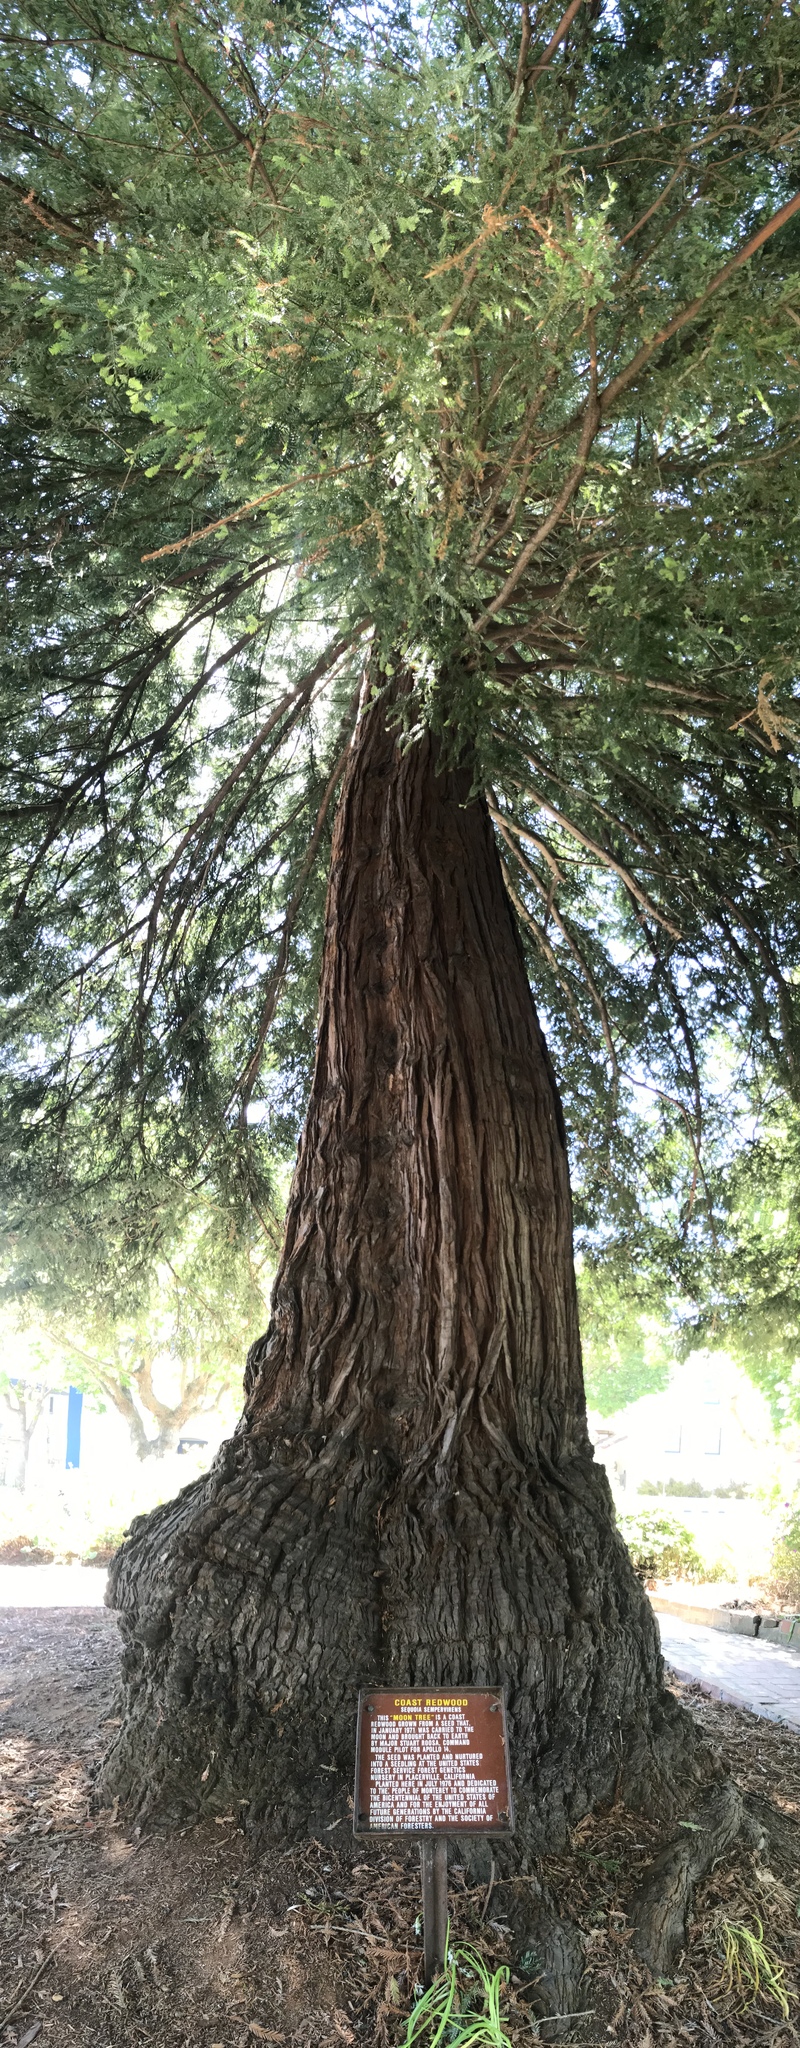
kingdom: Plantae
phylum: Tracheophyta
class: Pinopsida
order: Pinales
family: Cupressaceae
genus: Sequoia
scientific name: Sequoia sempervirens
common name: Coast redwood
